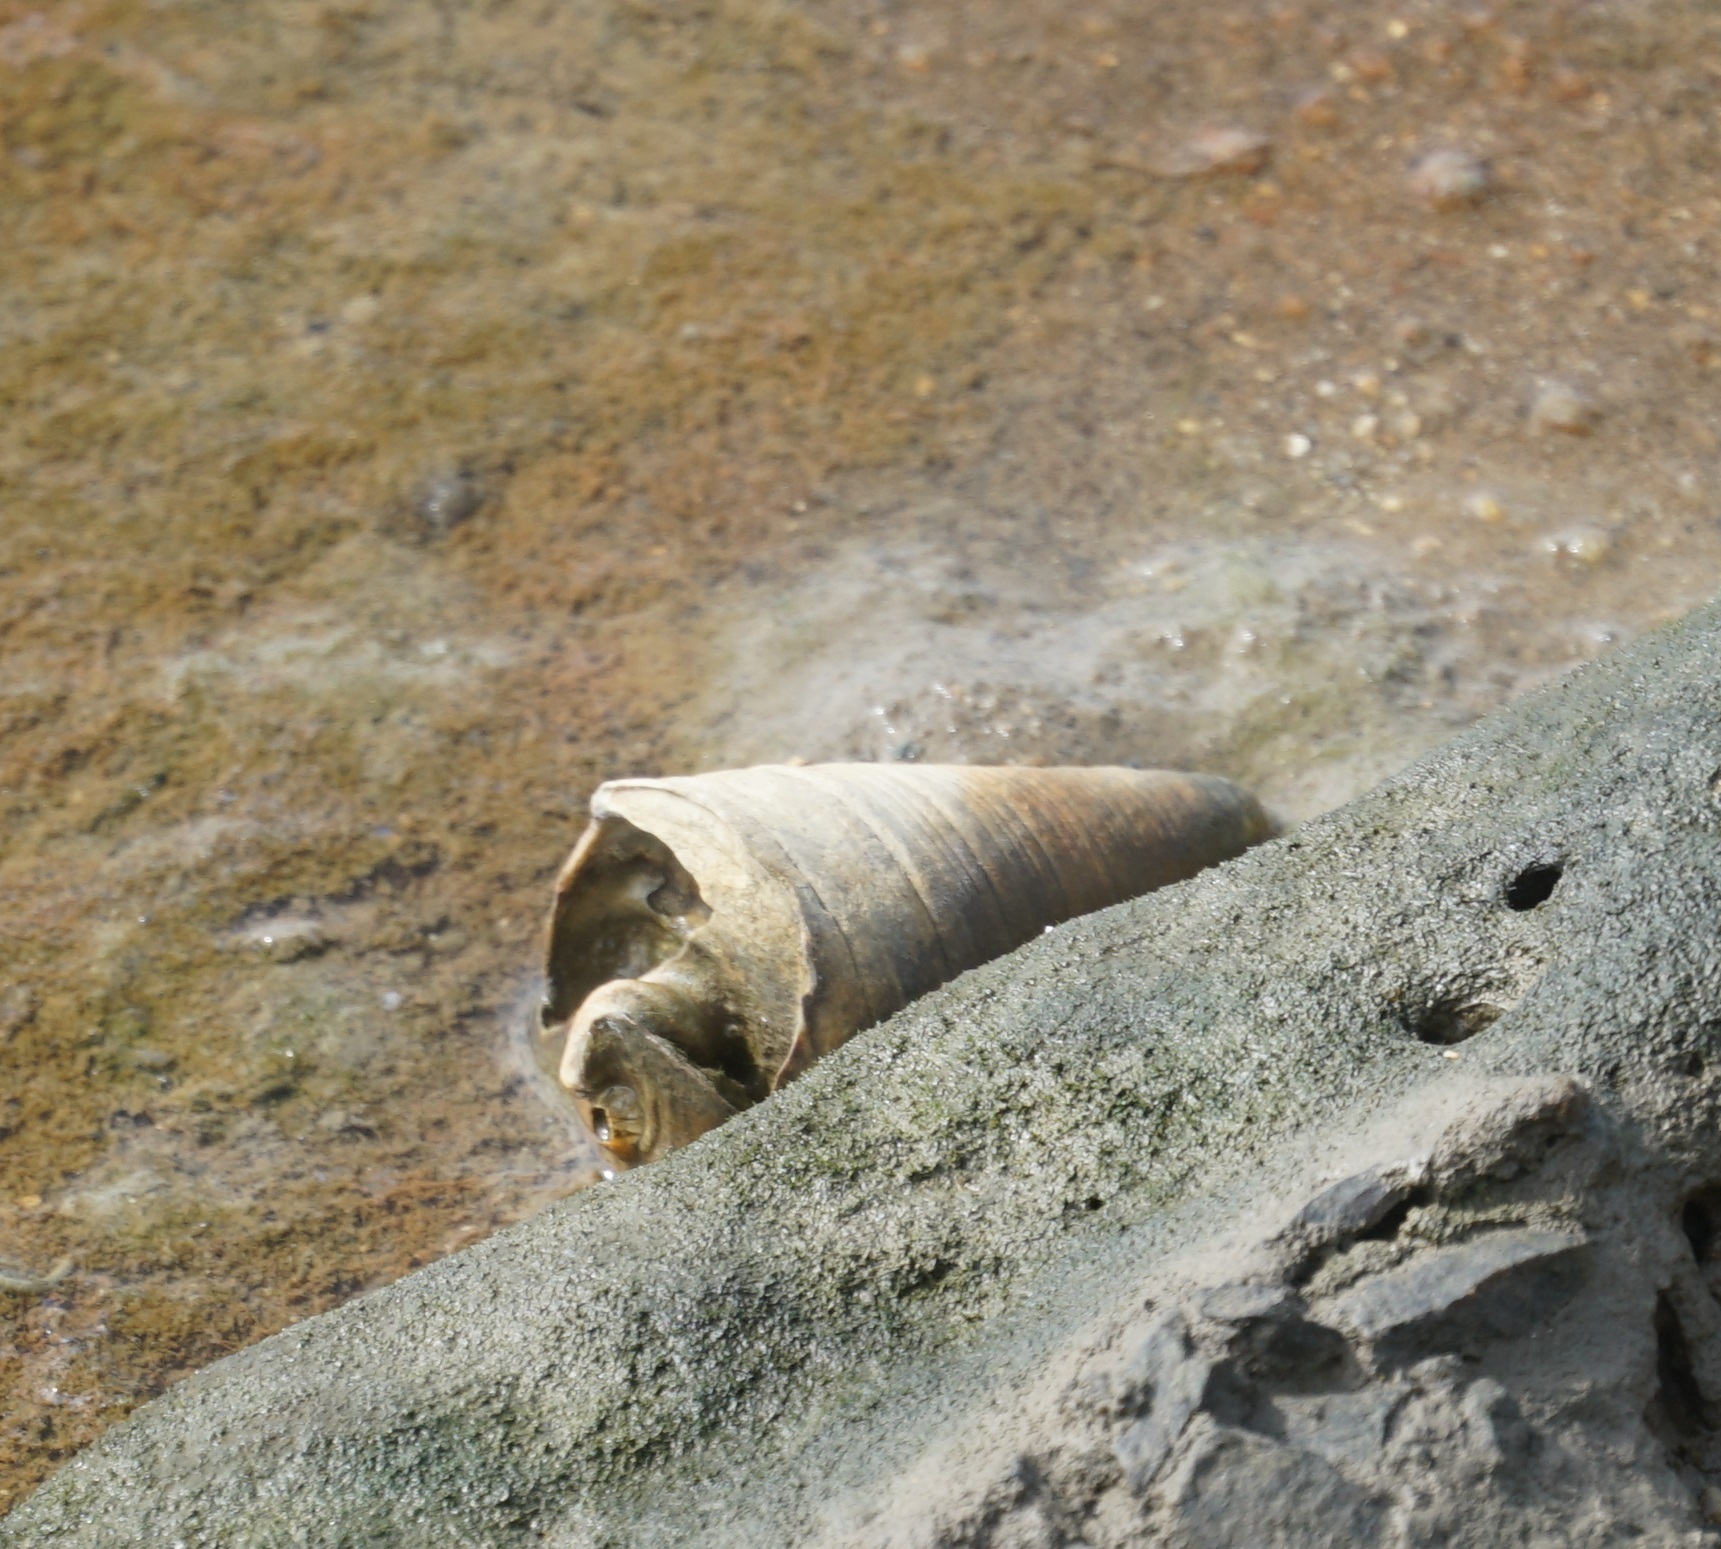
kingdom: Animalia
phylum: Mollusca
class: Gastropoda
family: Potamididae
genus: Telescopium
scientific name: Telescopium telescopium
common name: Telescope creeper
